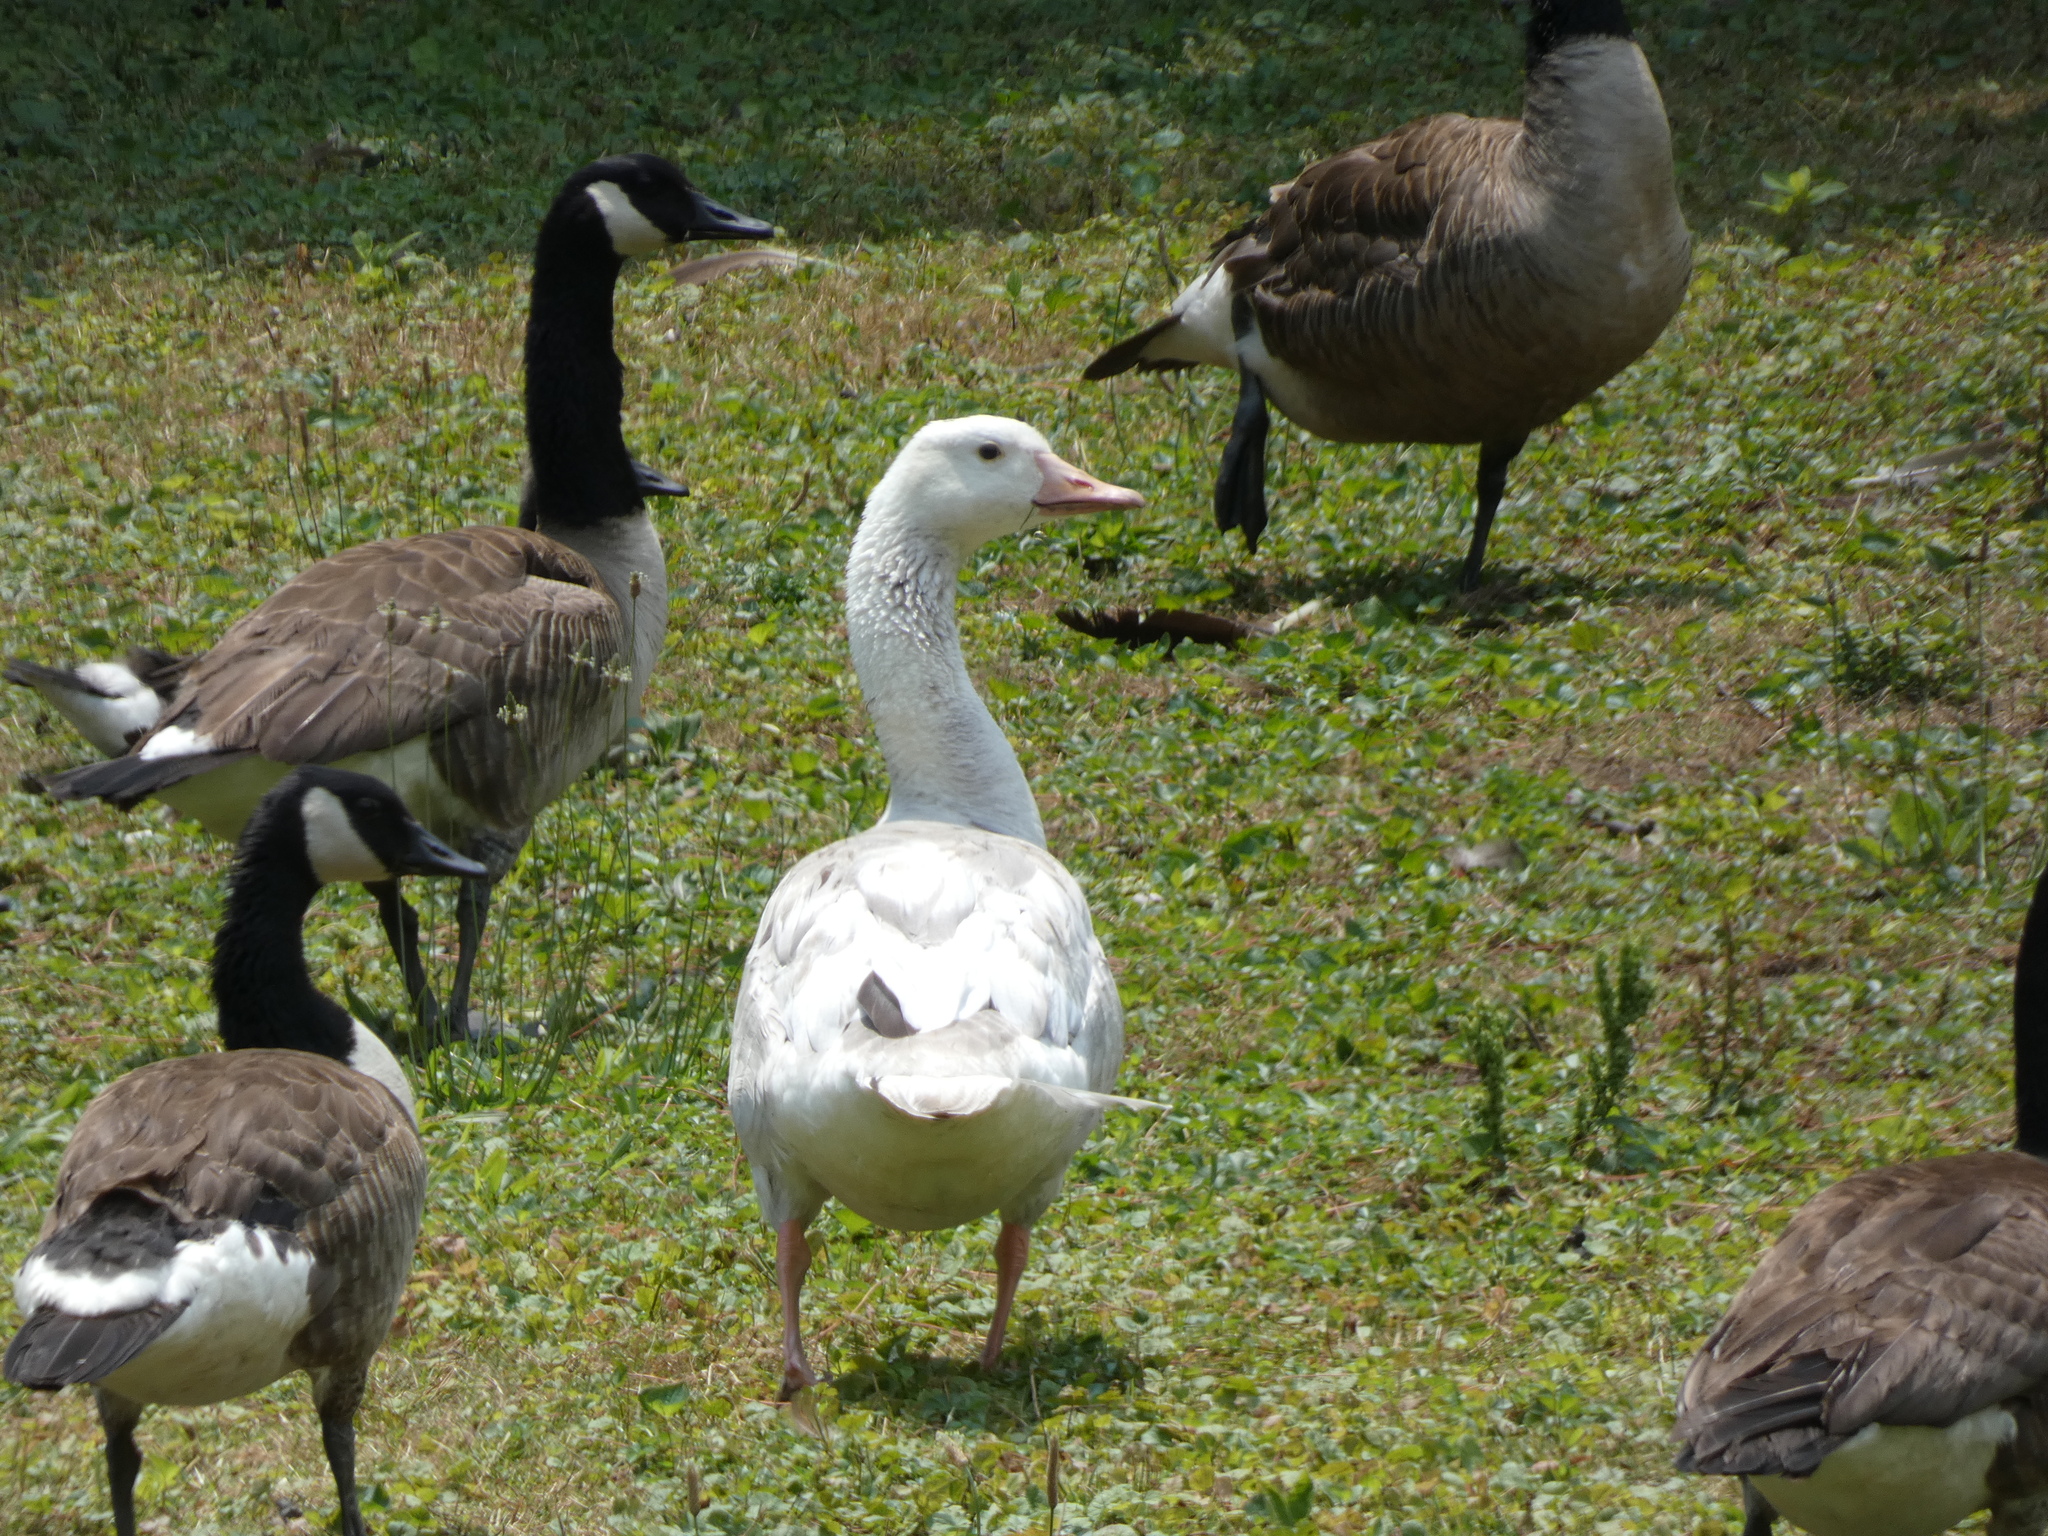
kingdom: Animalia
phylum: Chordata
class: Aves
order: Anseriformes
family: Anatidae
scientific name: Anatidae
